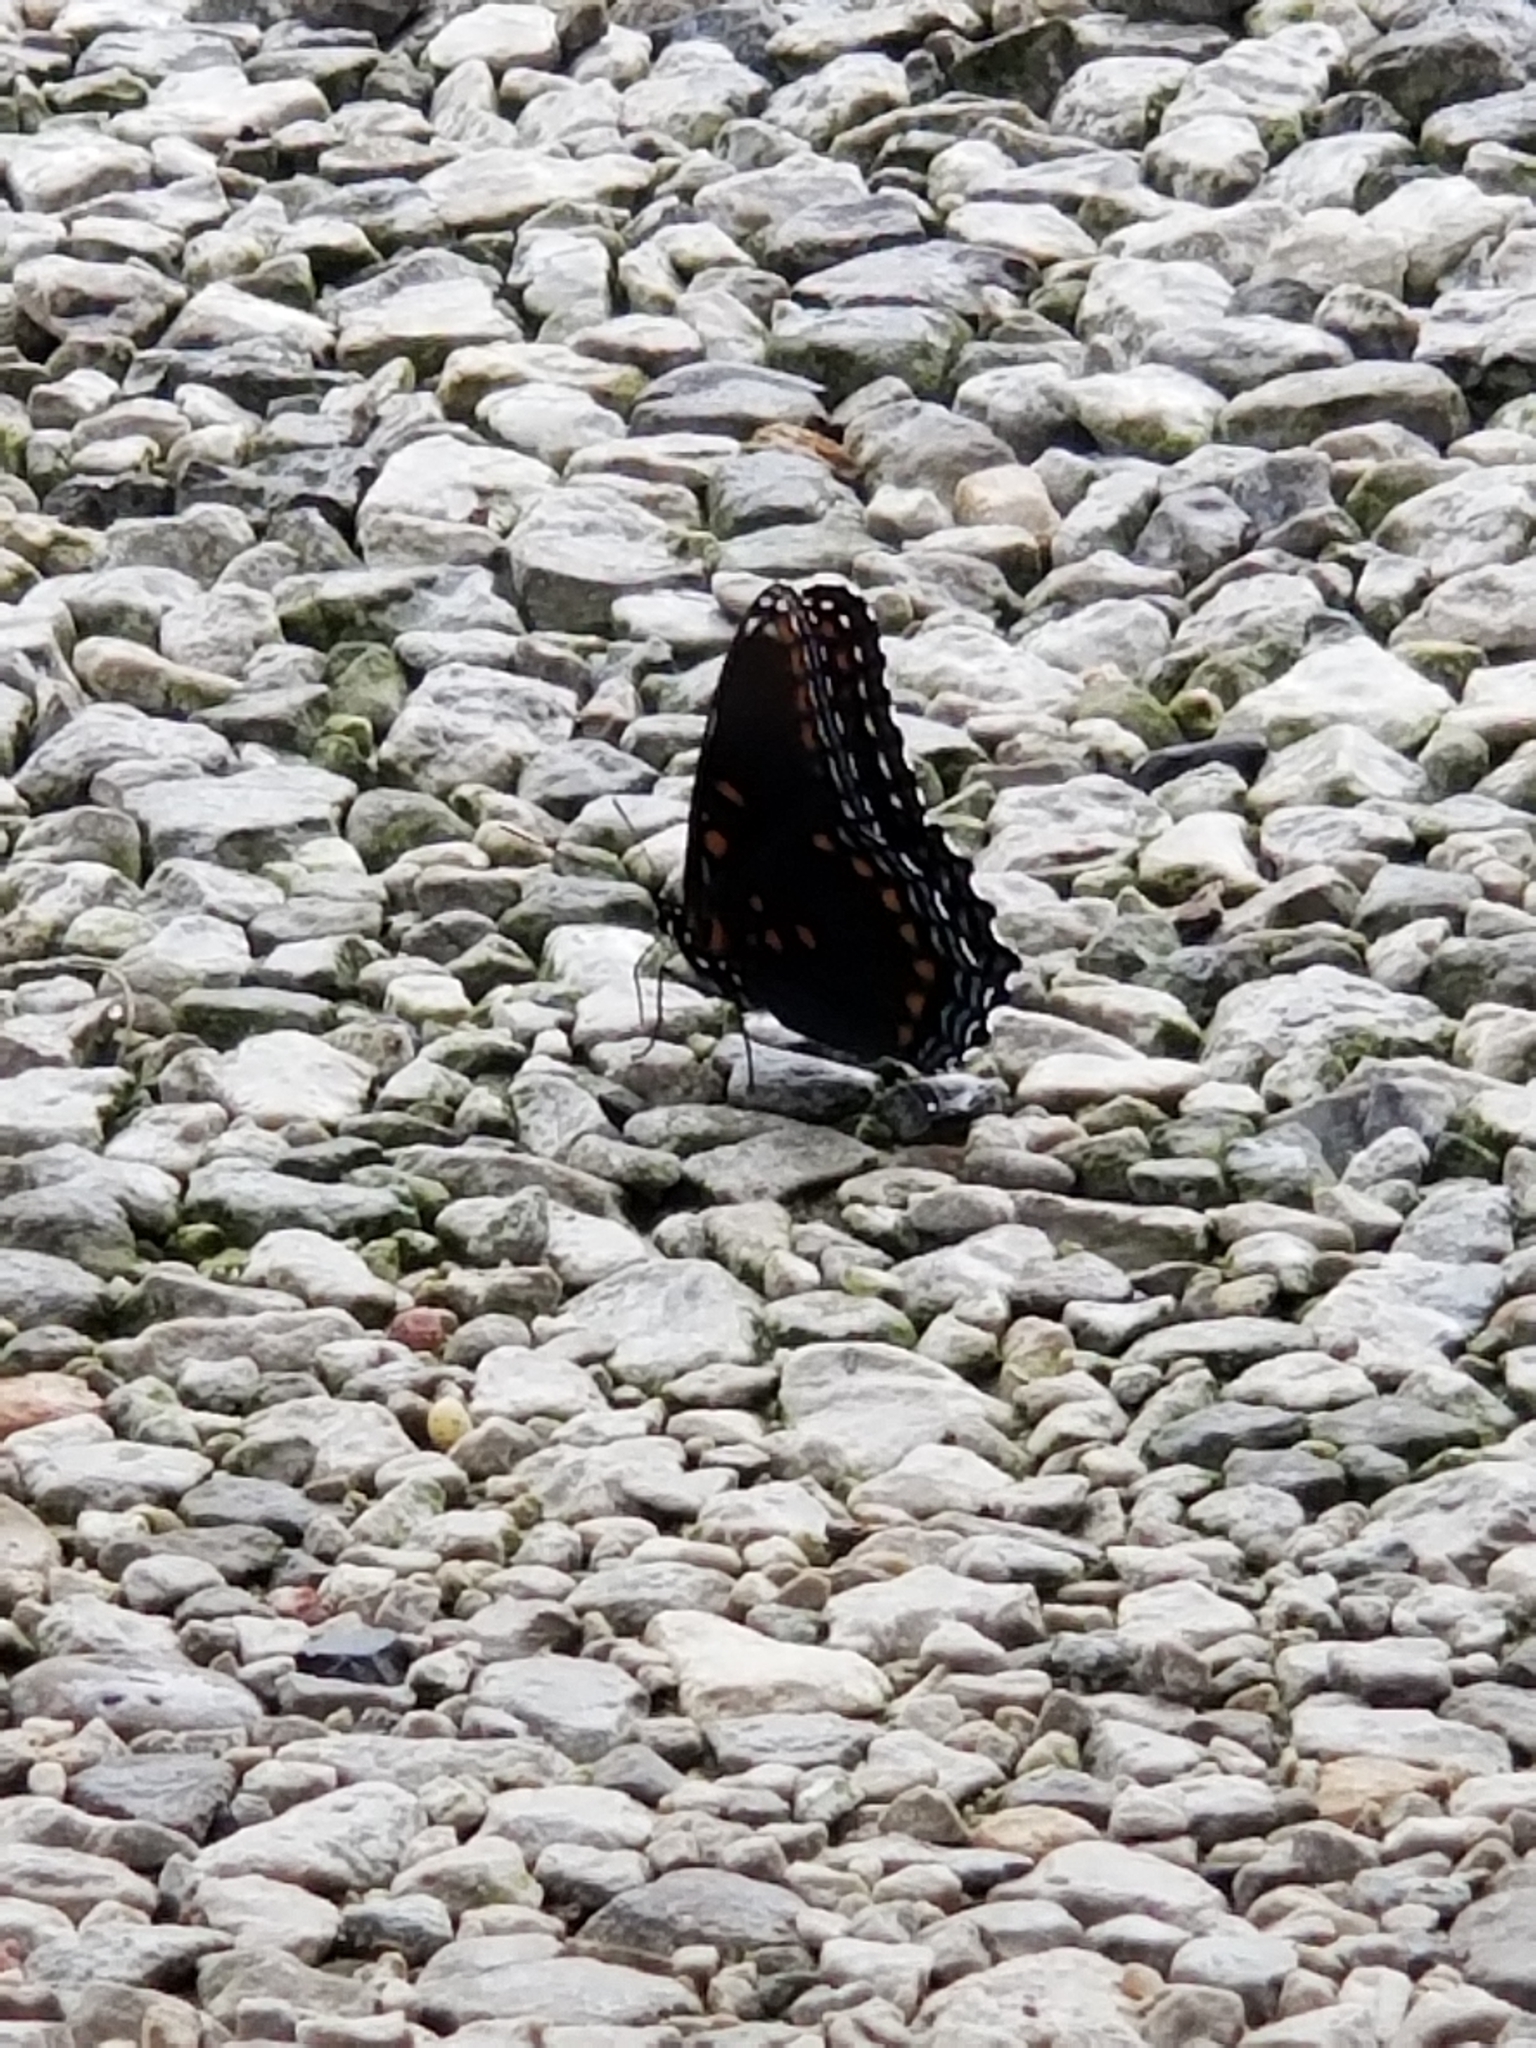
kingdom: Animalia
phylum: Arthropoda
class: Insecta
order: Lepidoptera
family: Nymphalidae
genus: Limenitis
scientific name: Limenitis arthemis
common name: Red-spotted admiral
